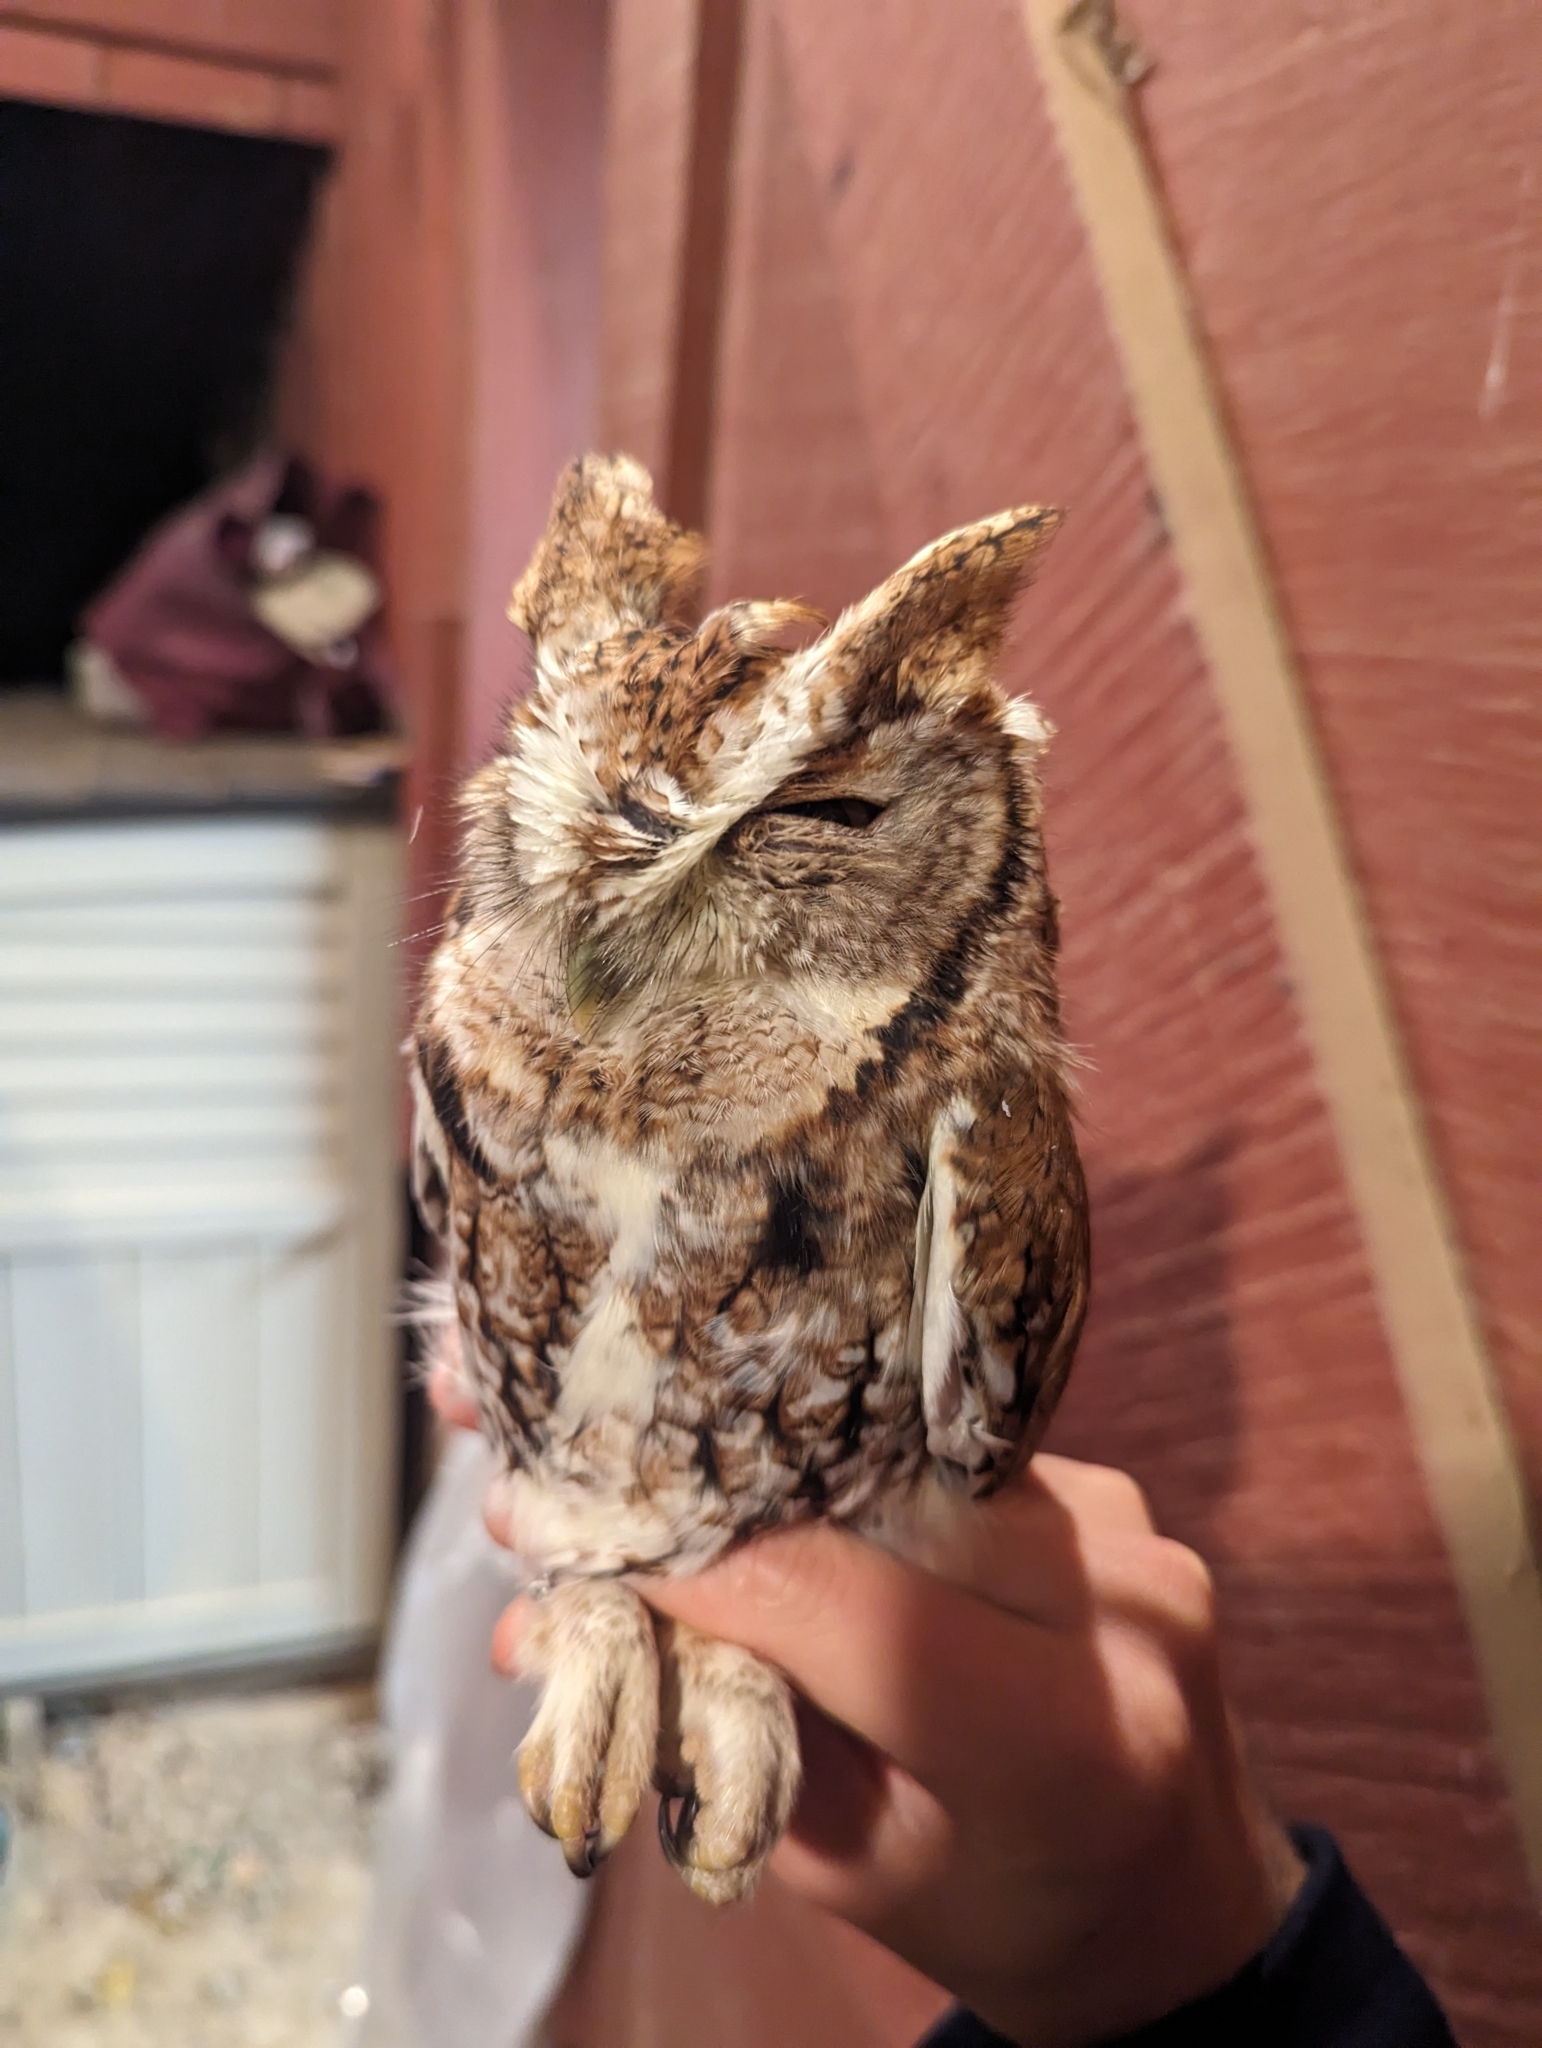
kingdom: Animalia
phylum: Chordata
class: Aves
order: Strigiformes
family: Strigidae
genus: Megascops
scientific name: Megascops asio
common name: Eastern screech-owl
